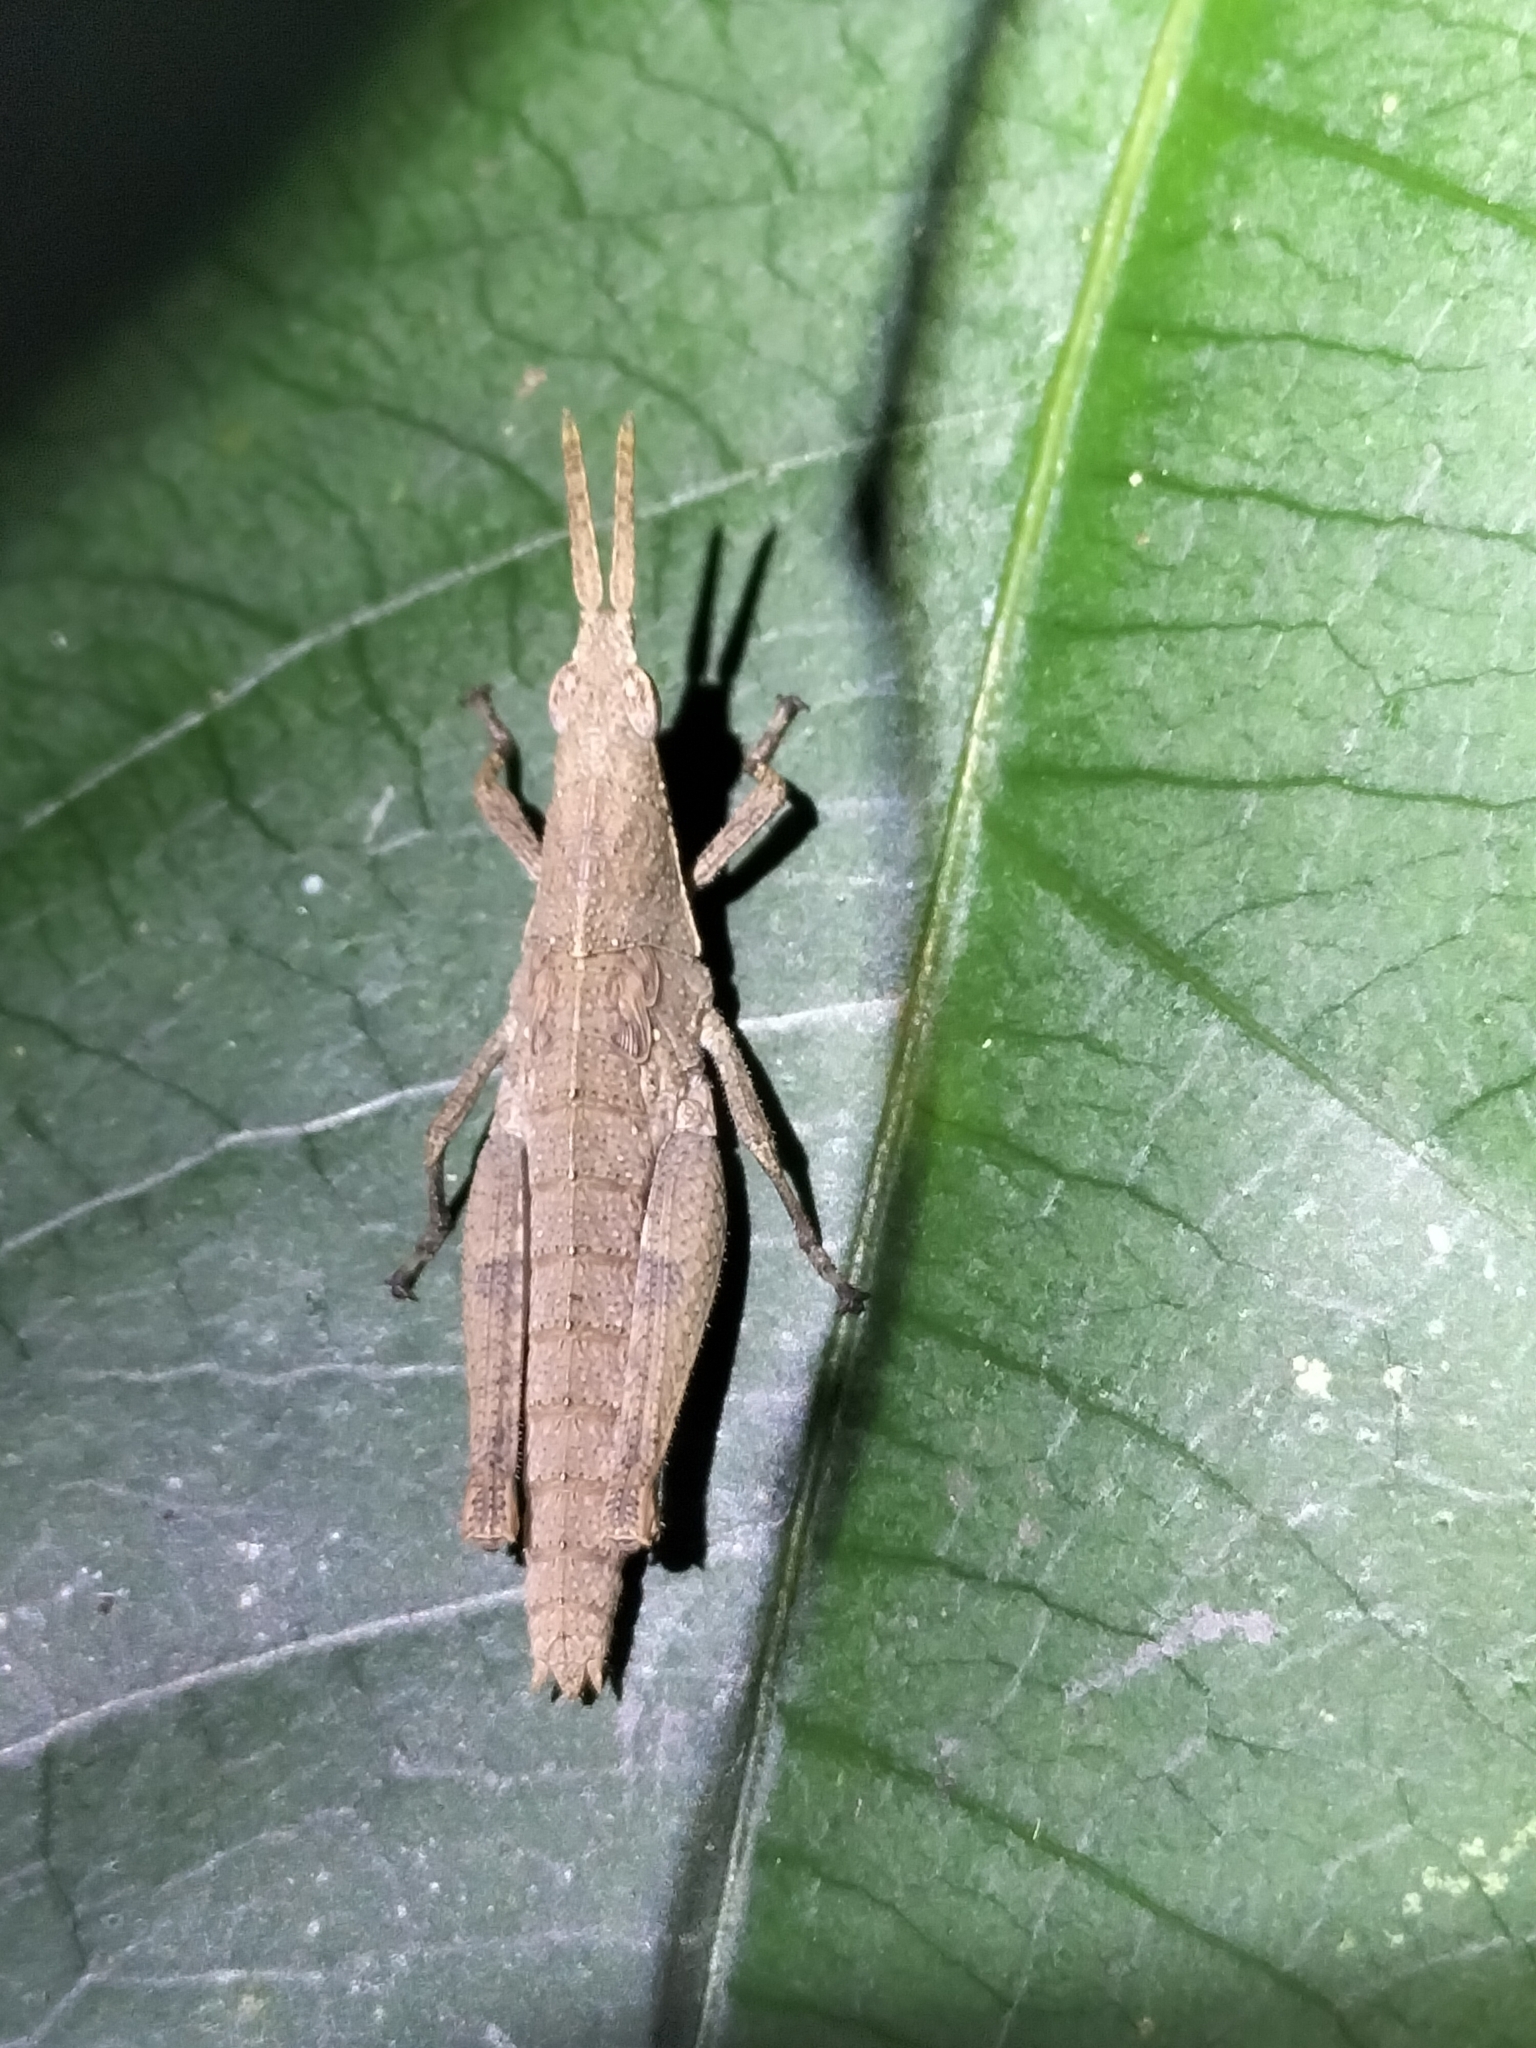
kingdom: Animalia
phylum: Arthropoda
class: Insecta
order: Orthoptera
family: Pyrgomorphidae
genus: Desmoptera
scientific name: Desmoptera truncatipennis
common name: Large forest pyrgomorph
